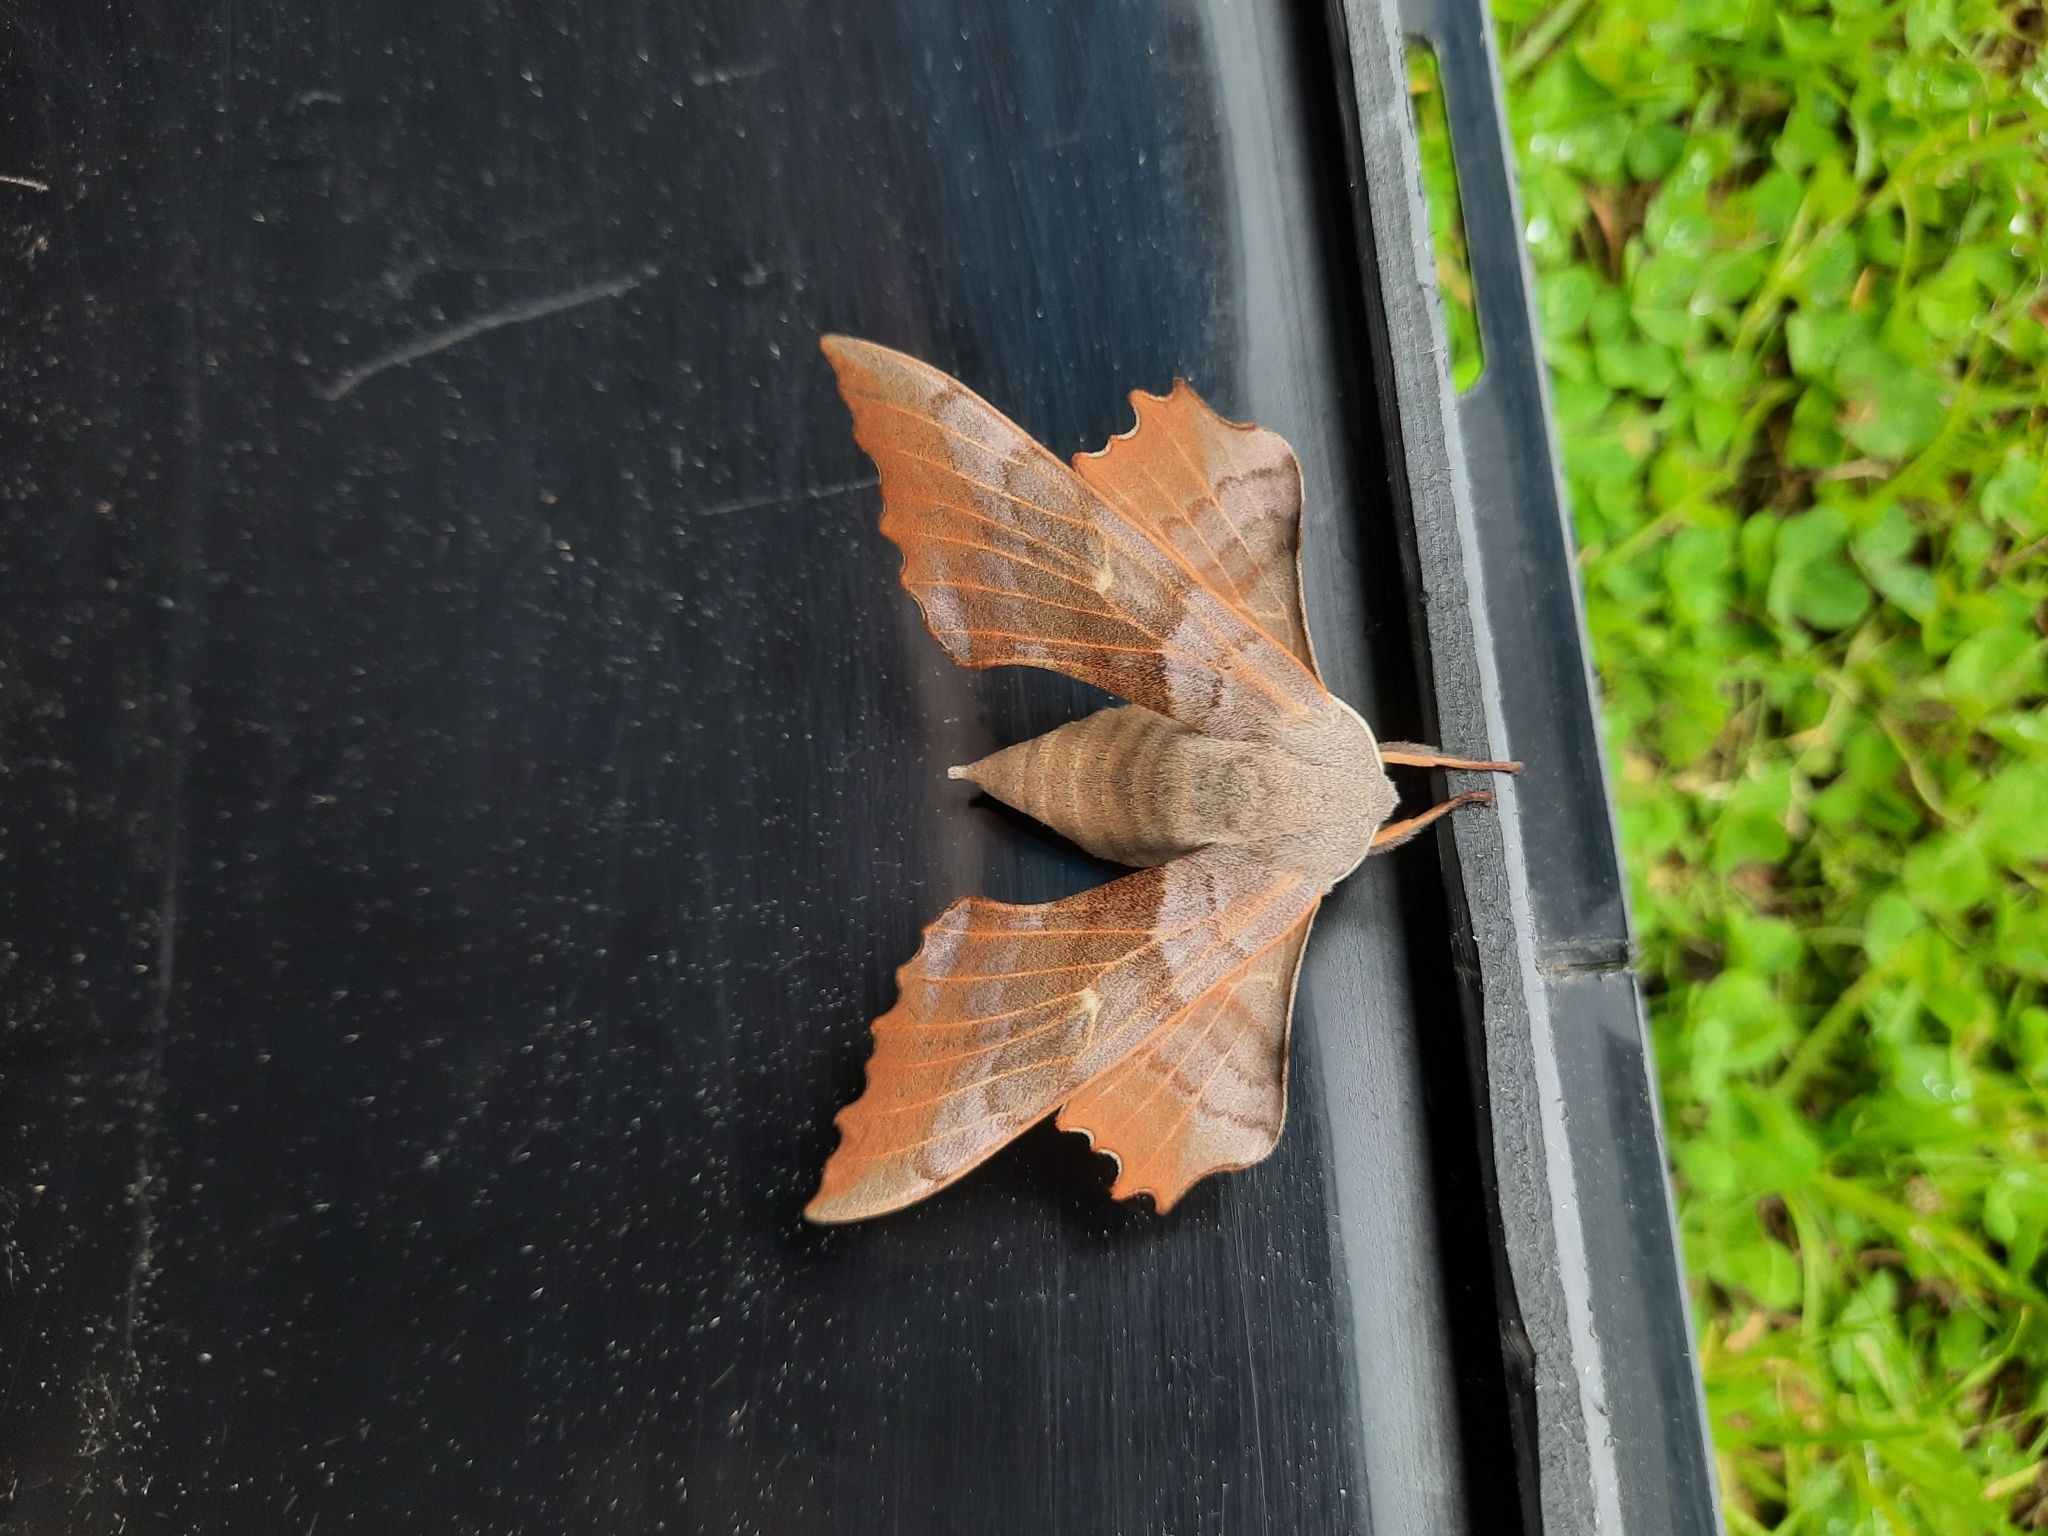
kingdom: Animalia
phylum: Arthropoda
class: Insecta
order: Lepidoptera
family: Sphingidae
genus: Laothoe
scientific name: Laothoe populi
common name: Poplar hawk-moth
